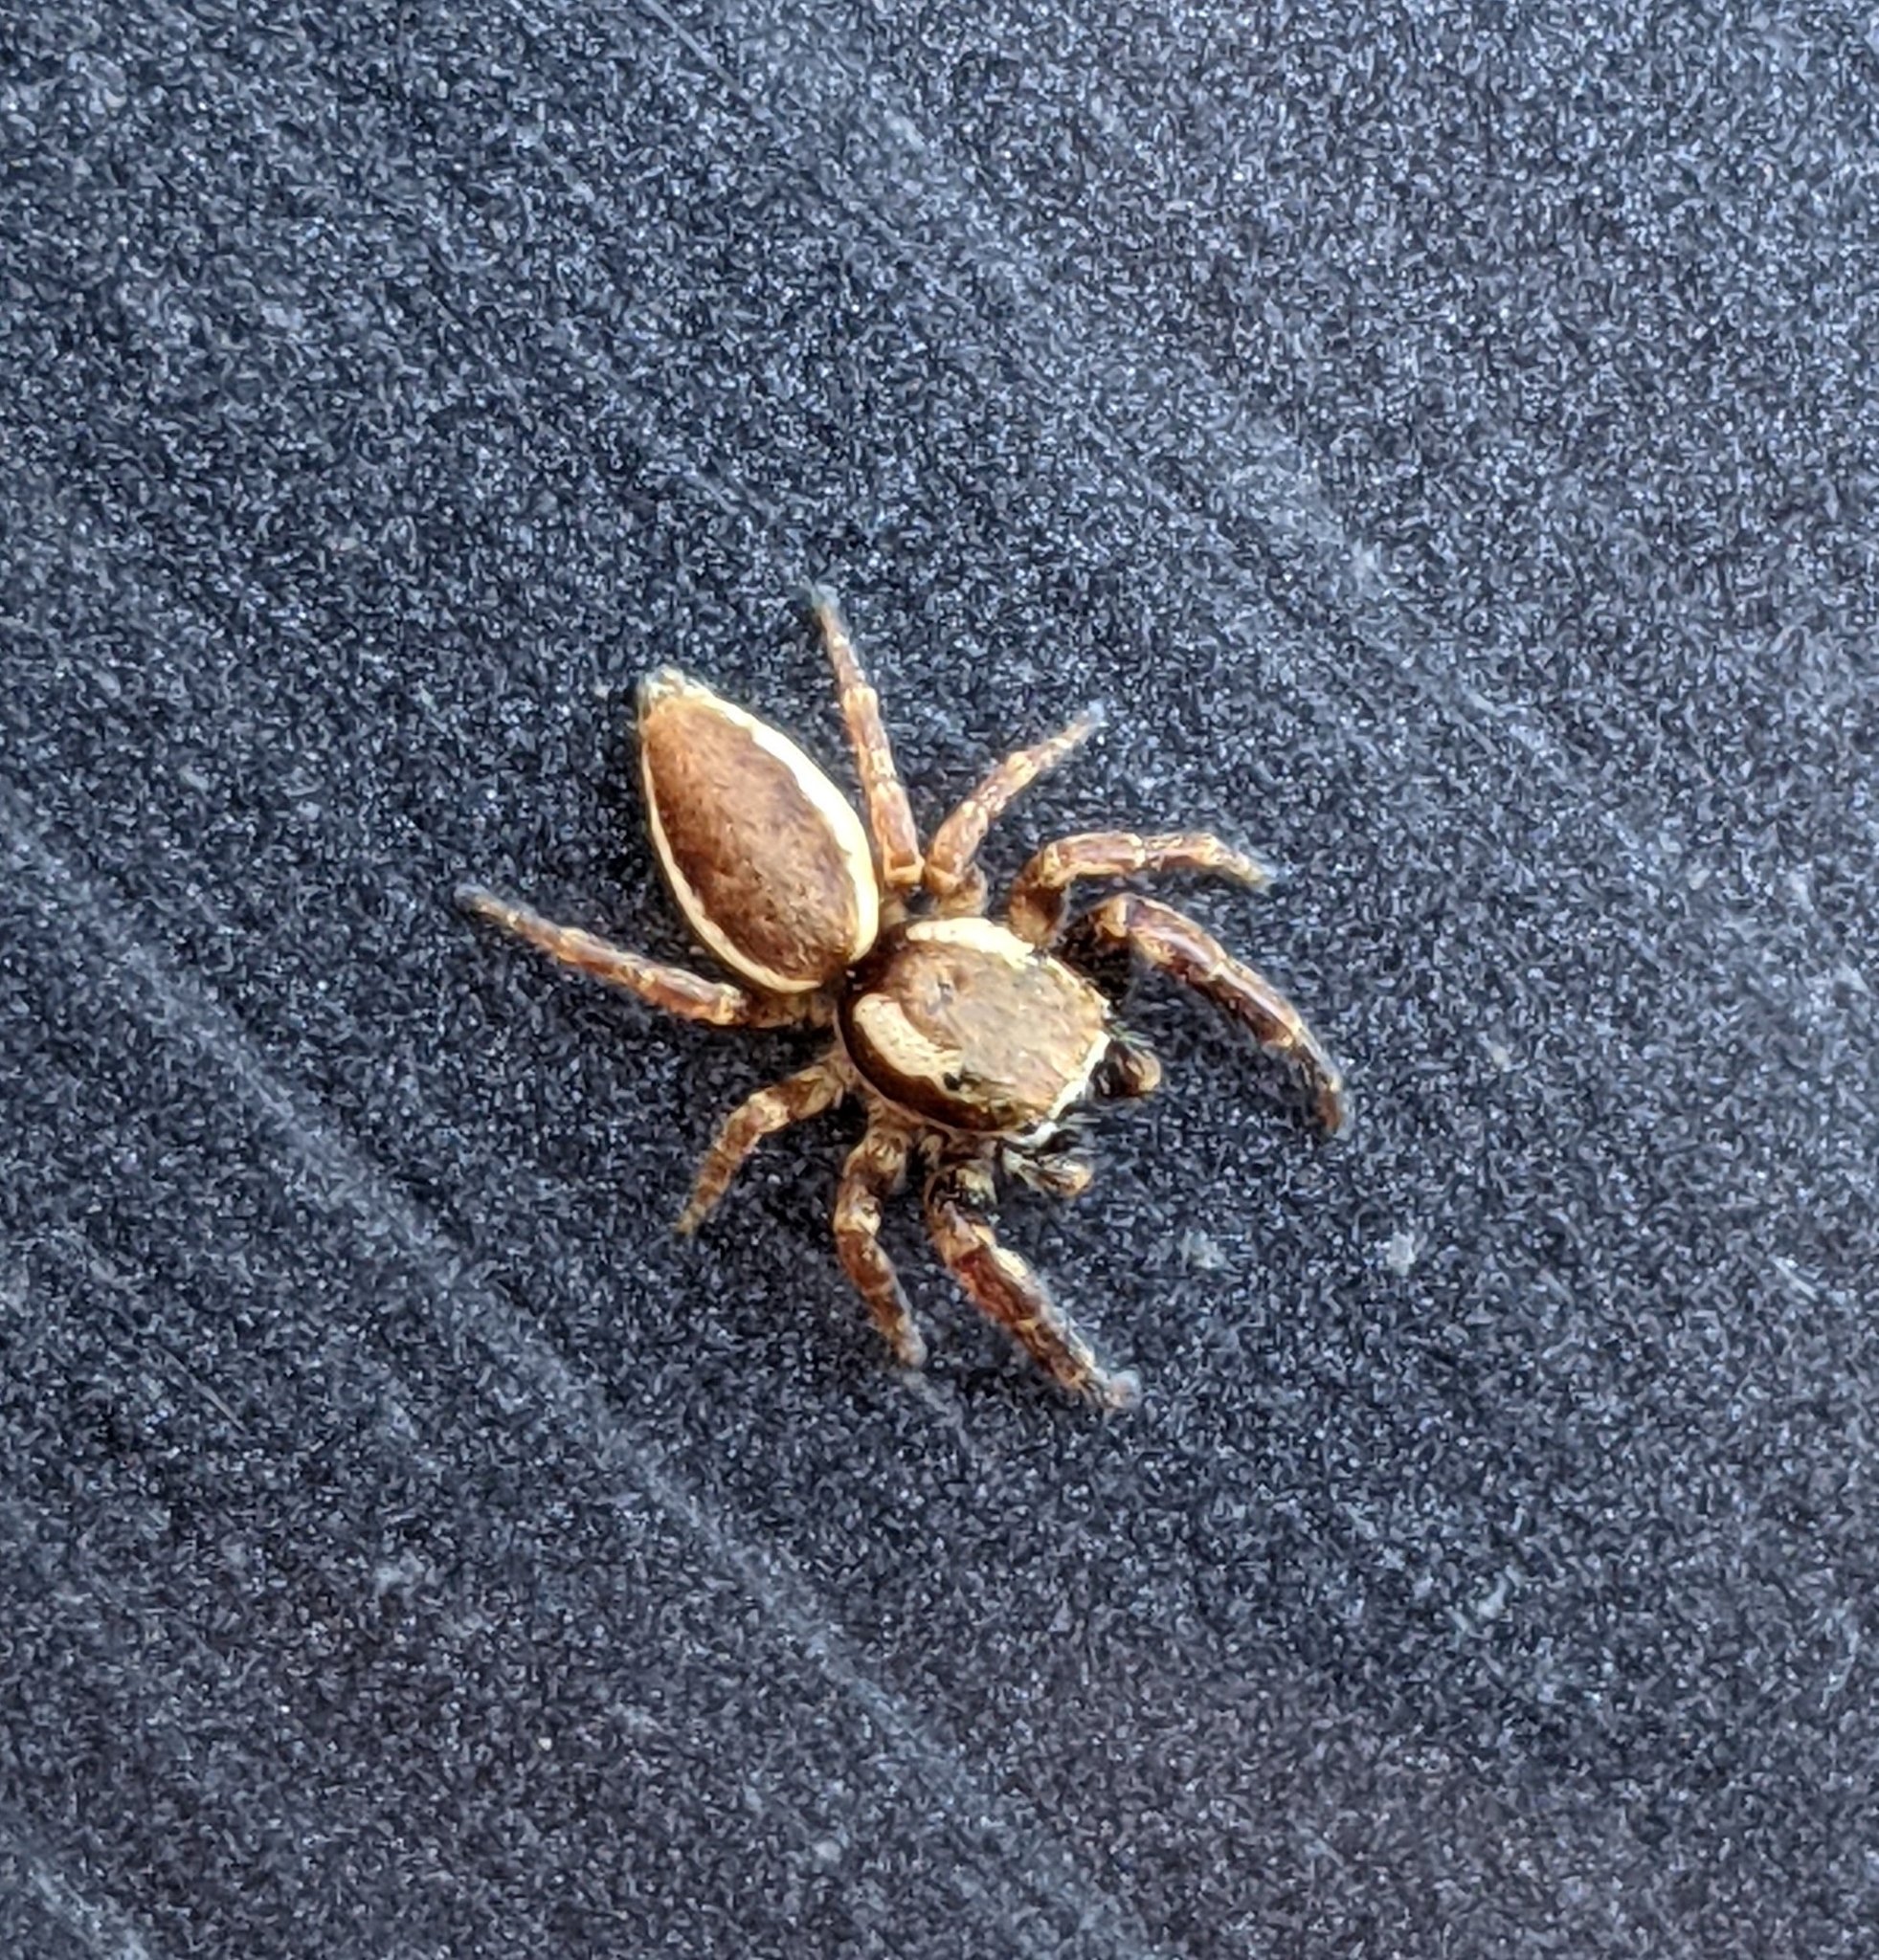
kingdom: Animalia
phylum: Arthropoda
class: Arachnida
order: Araneae
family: Salticidae
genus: Phanias
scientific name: Phanias albeolus
